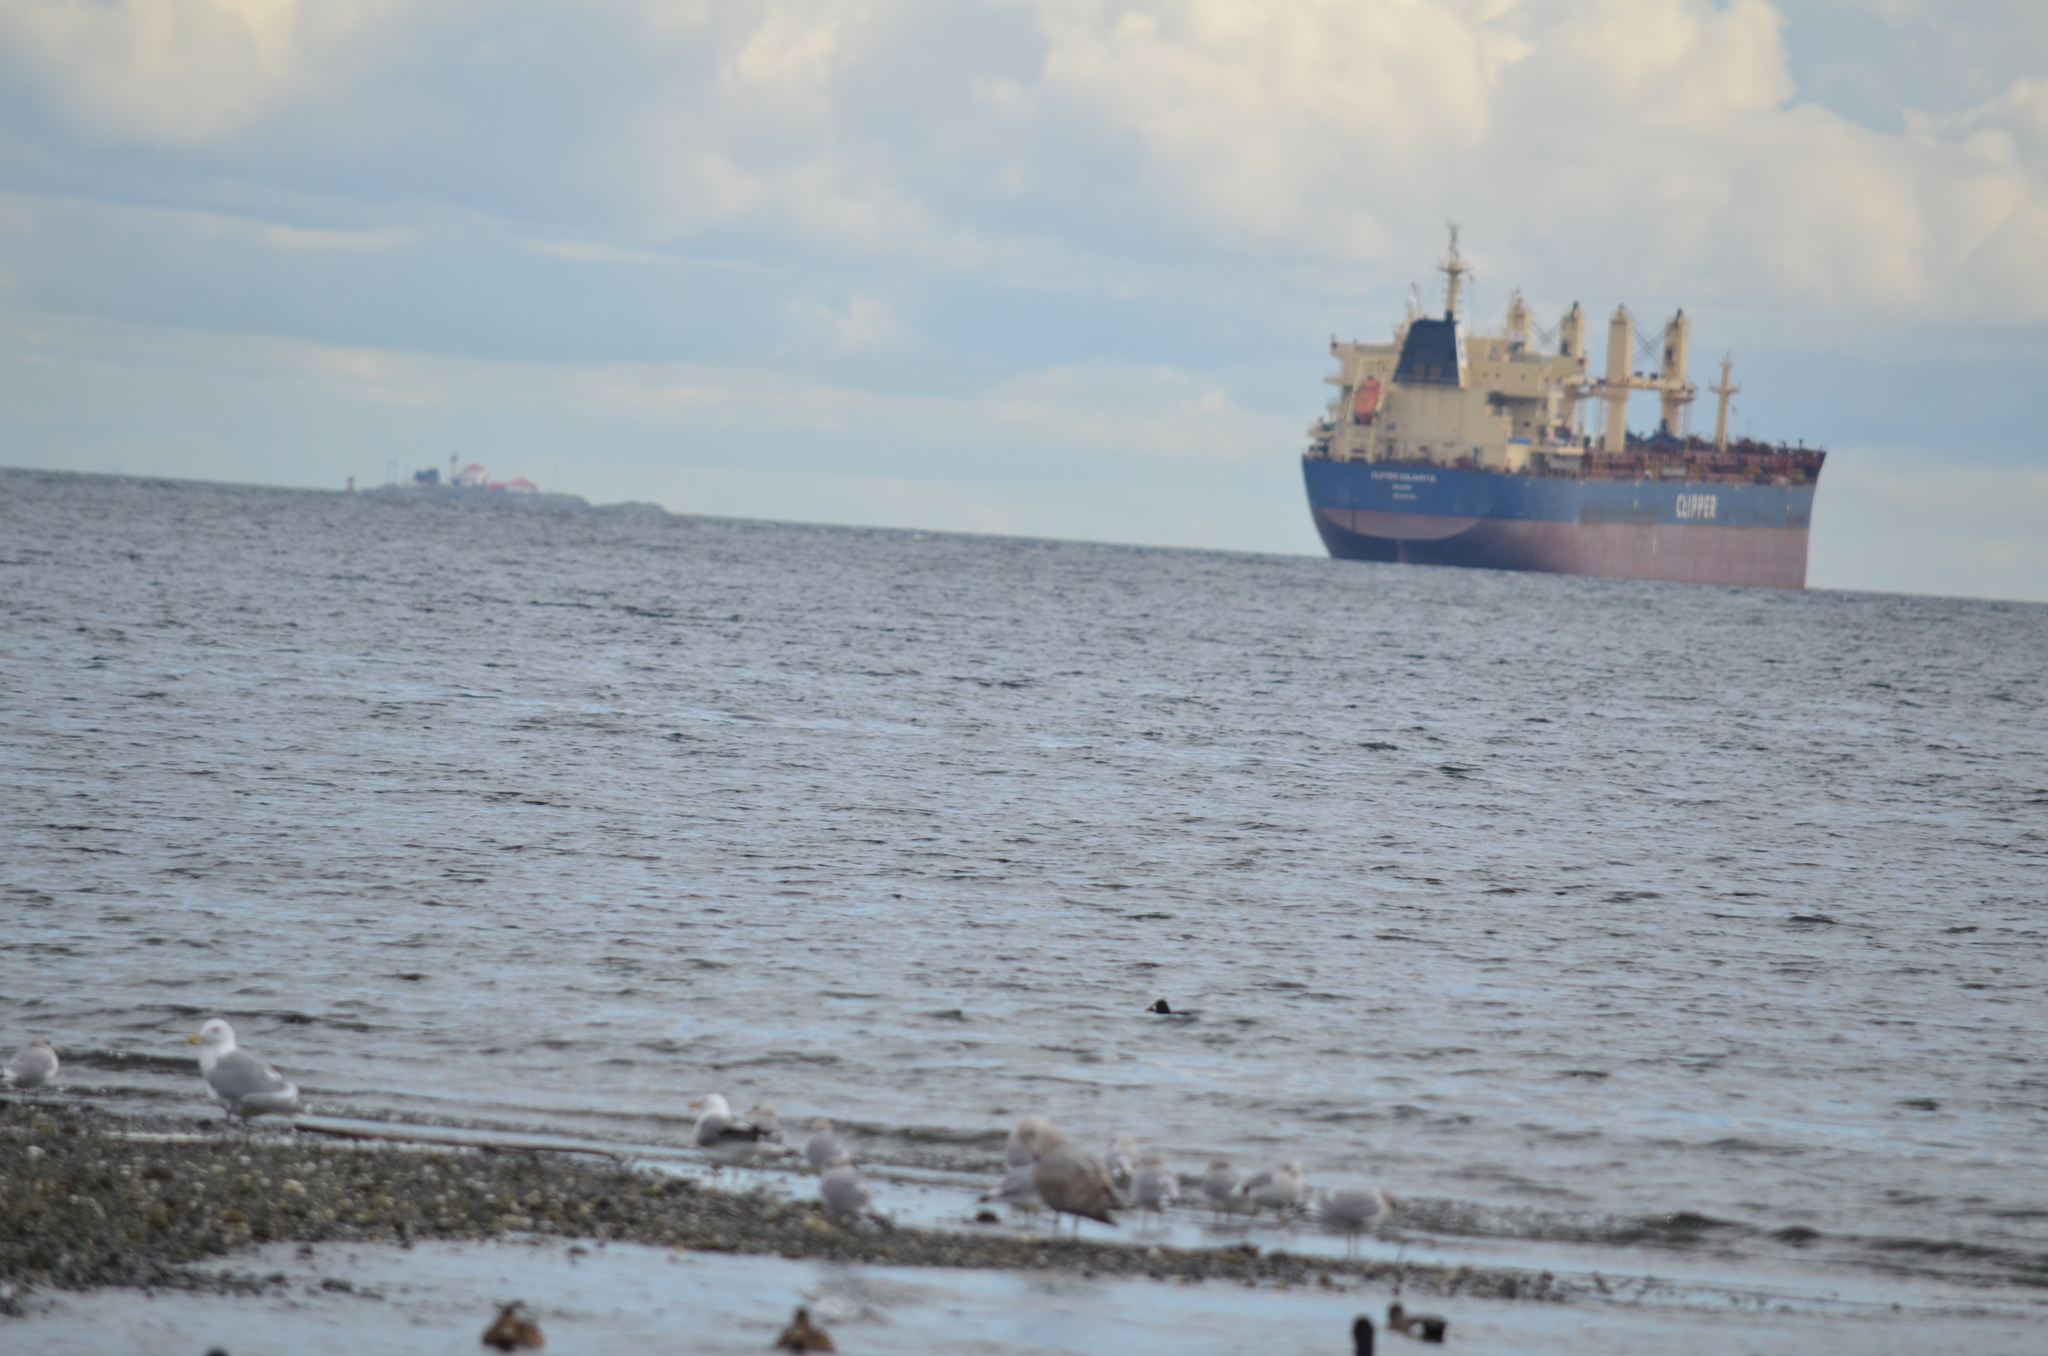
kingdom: Animalia
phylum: Chordata
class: Aves
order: Anseriformes
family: Anatidae
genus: Bucephala
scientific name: Bucephala clangula
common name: Common goldeneye
